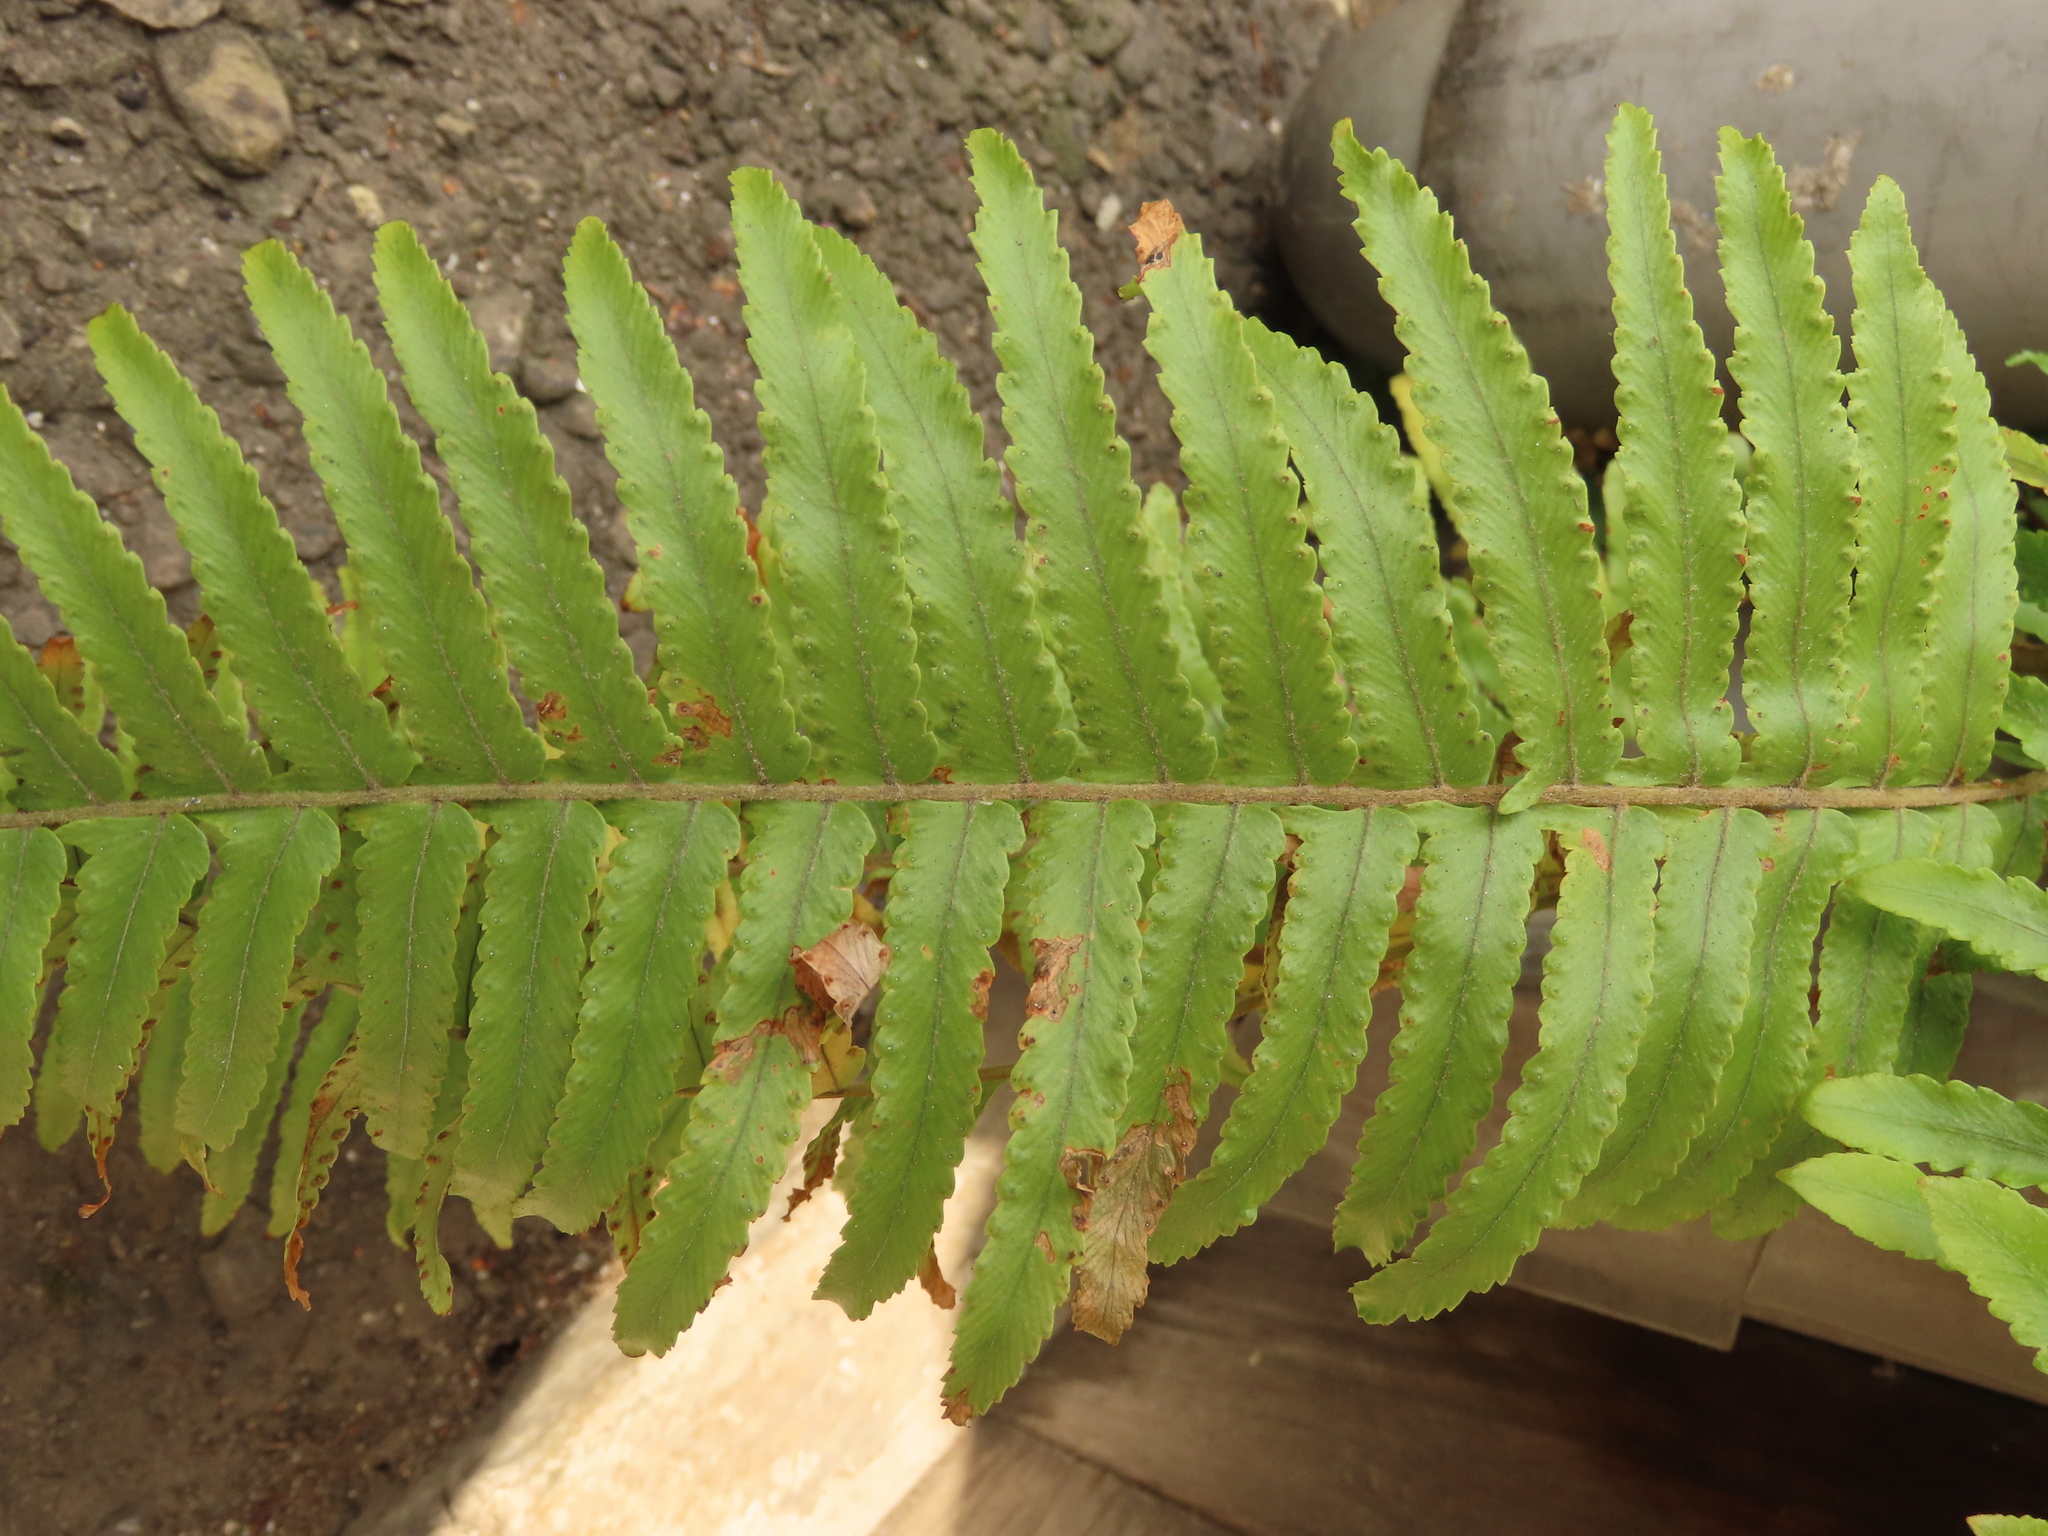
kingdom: Plantae
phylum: Tracheophyta
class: Polypodiopsida
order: Polypodiales
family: Nephrolepidaceae
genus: Nephrolepis
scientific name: Nephrolepis brownii
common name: Asian swordfern
